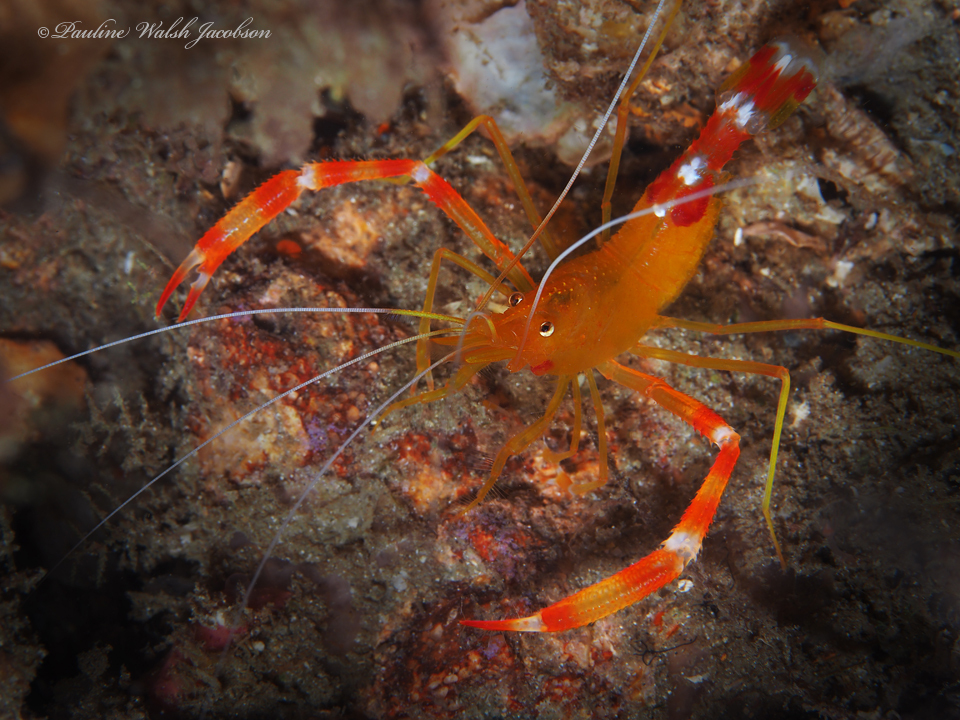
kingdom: Animalia
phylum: Arthropoda
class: Malacostraca
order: Decapoda
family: Stenopodidae
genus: Stenopus
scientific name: Stenopus scutellatus
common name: Golden coral shrimp
